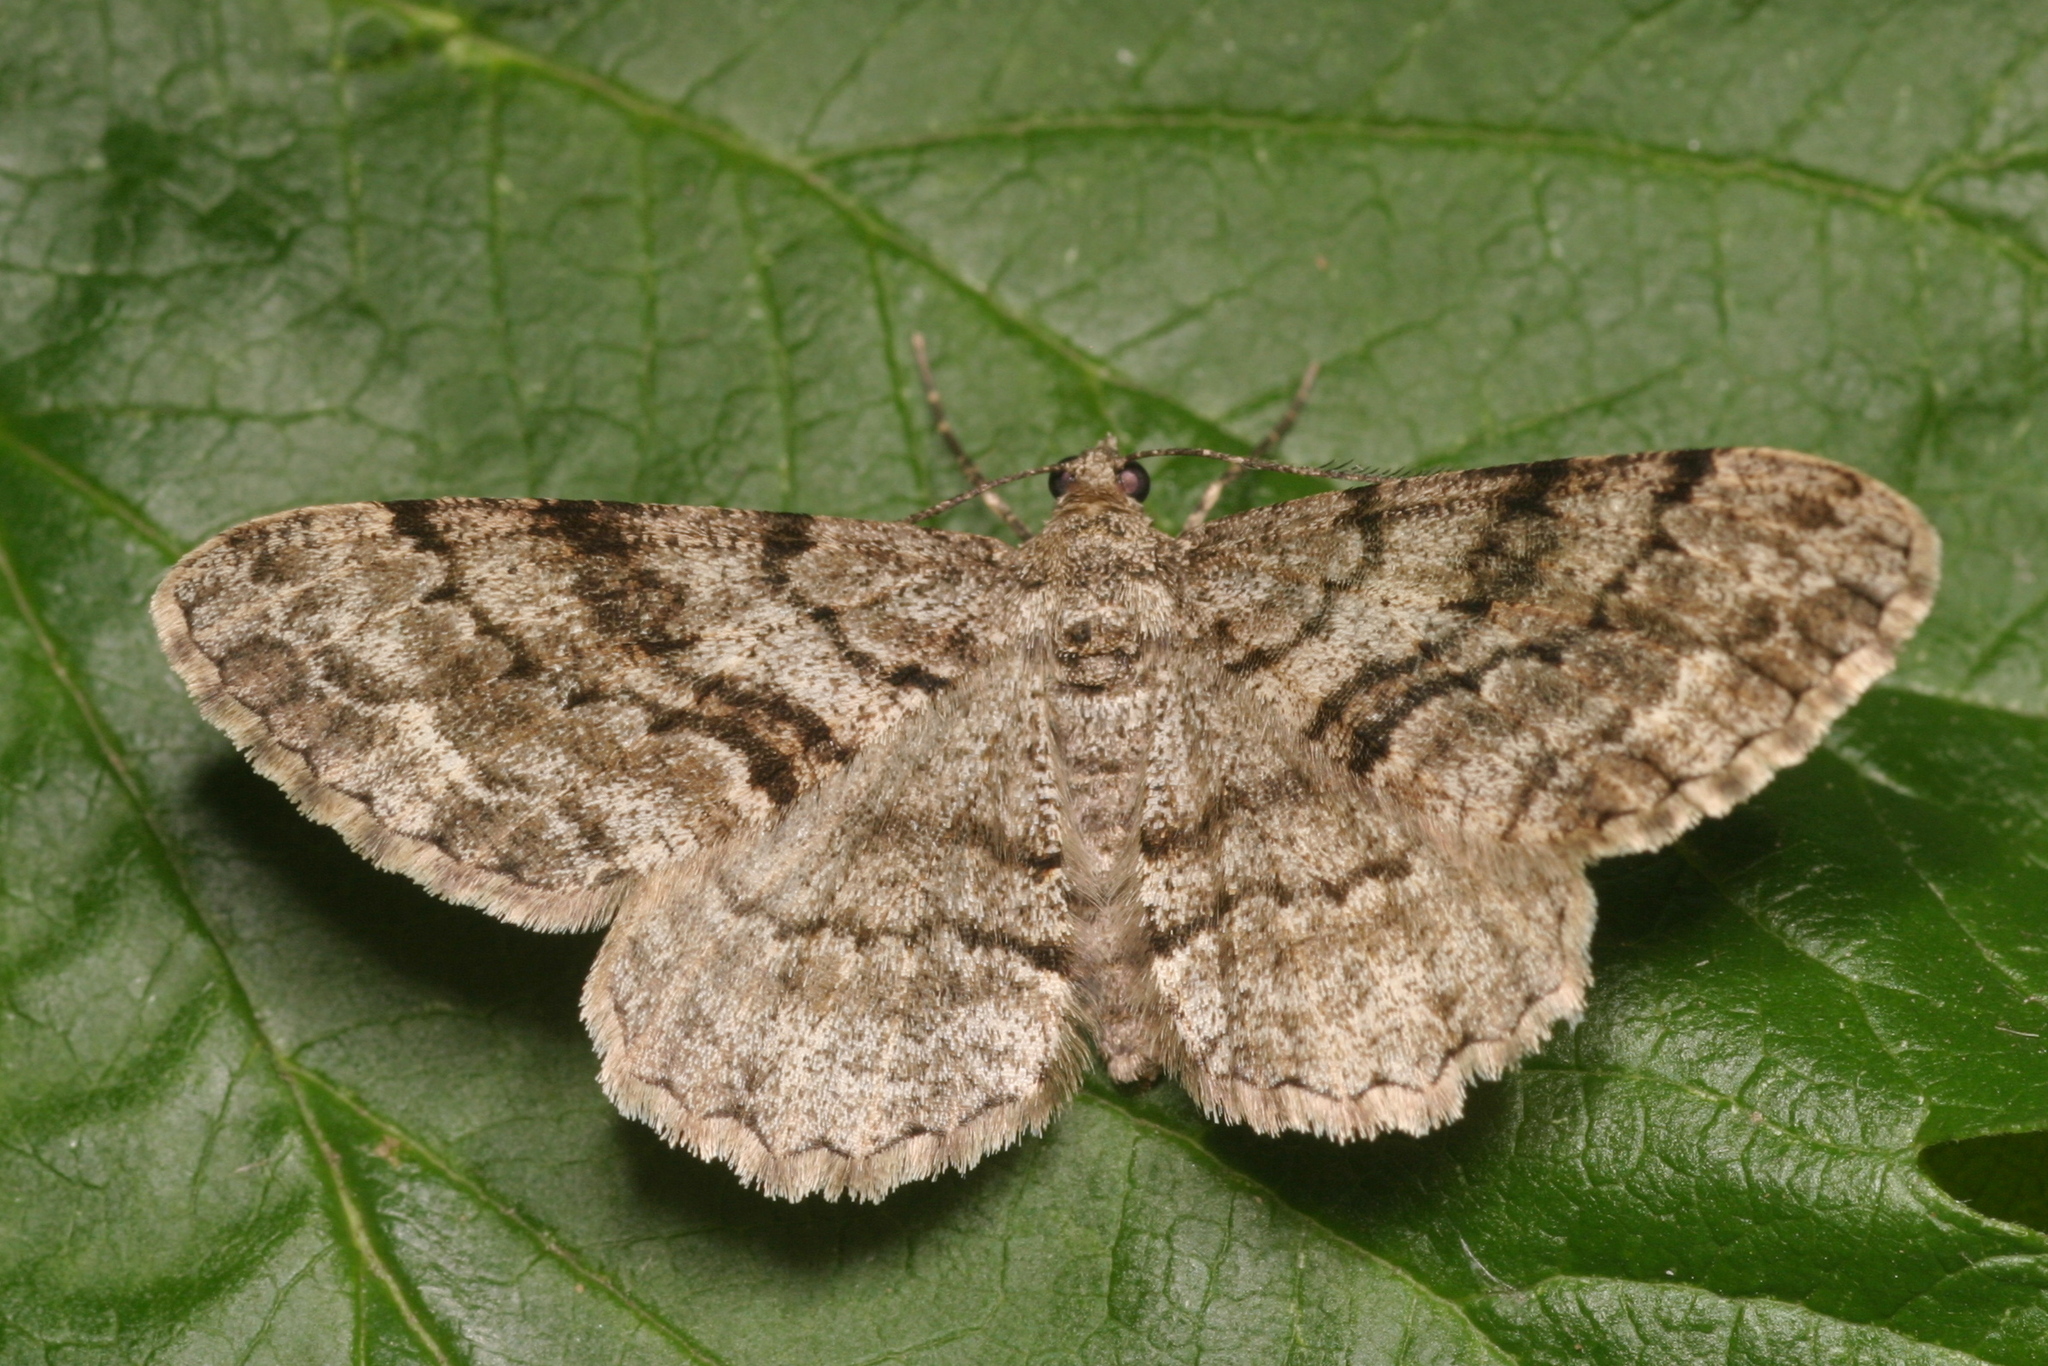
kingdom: Animalia
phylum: Arthropoda
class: Insecta
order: Lepidoptera
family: Geometridae
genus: Peribatodes
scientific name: Peribatodes secundaria
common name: Feathered beauty
